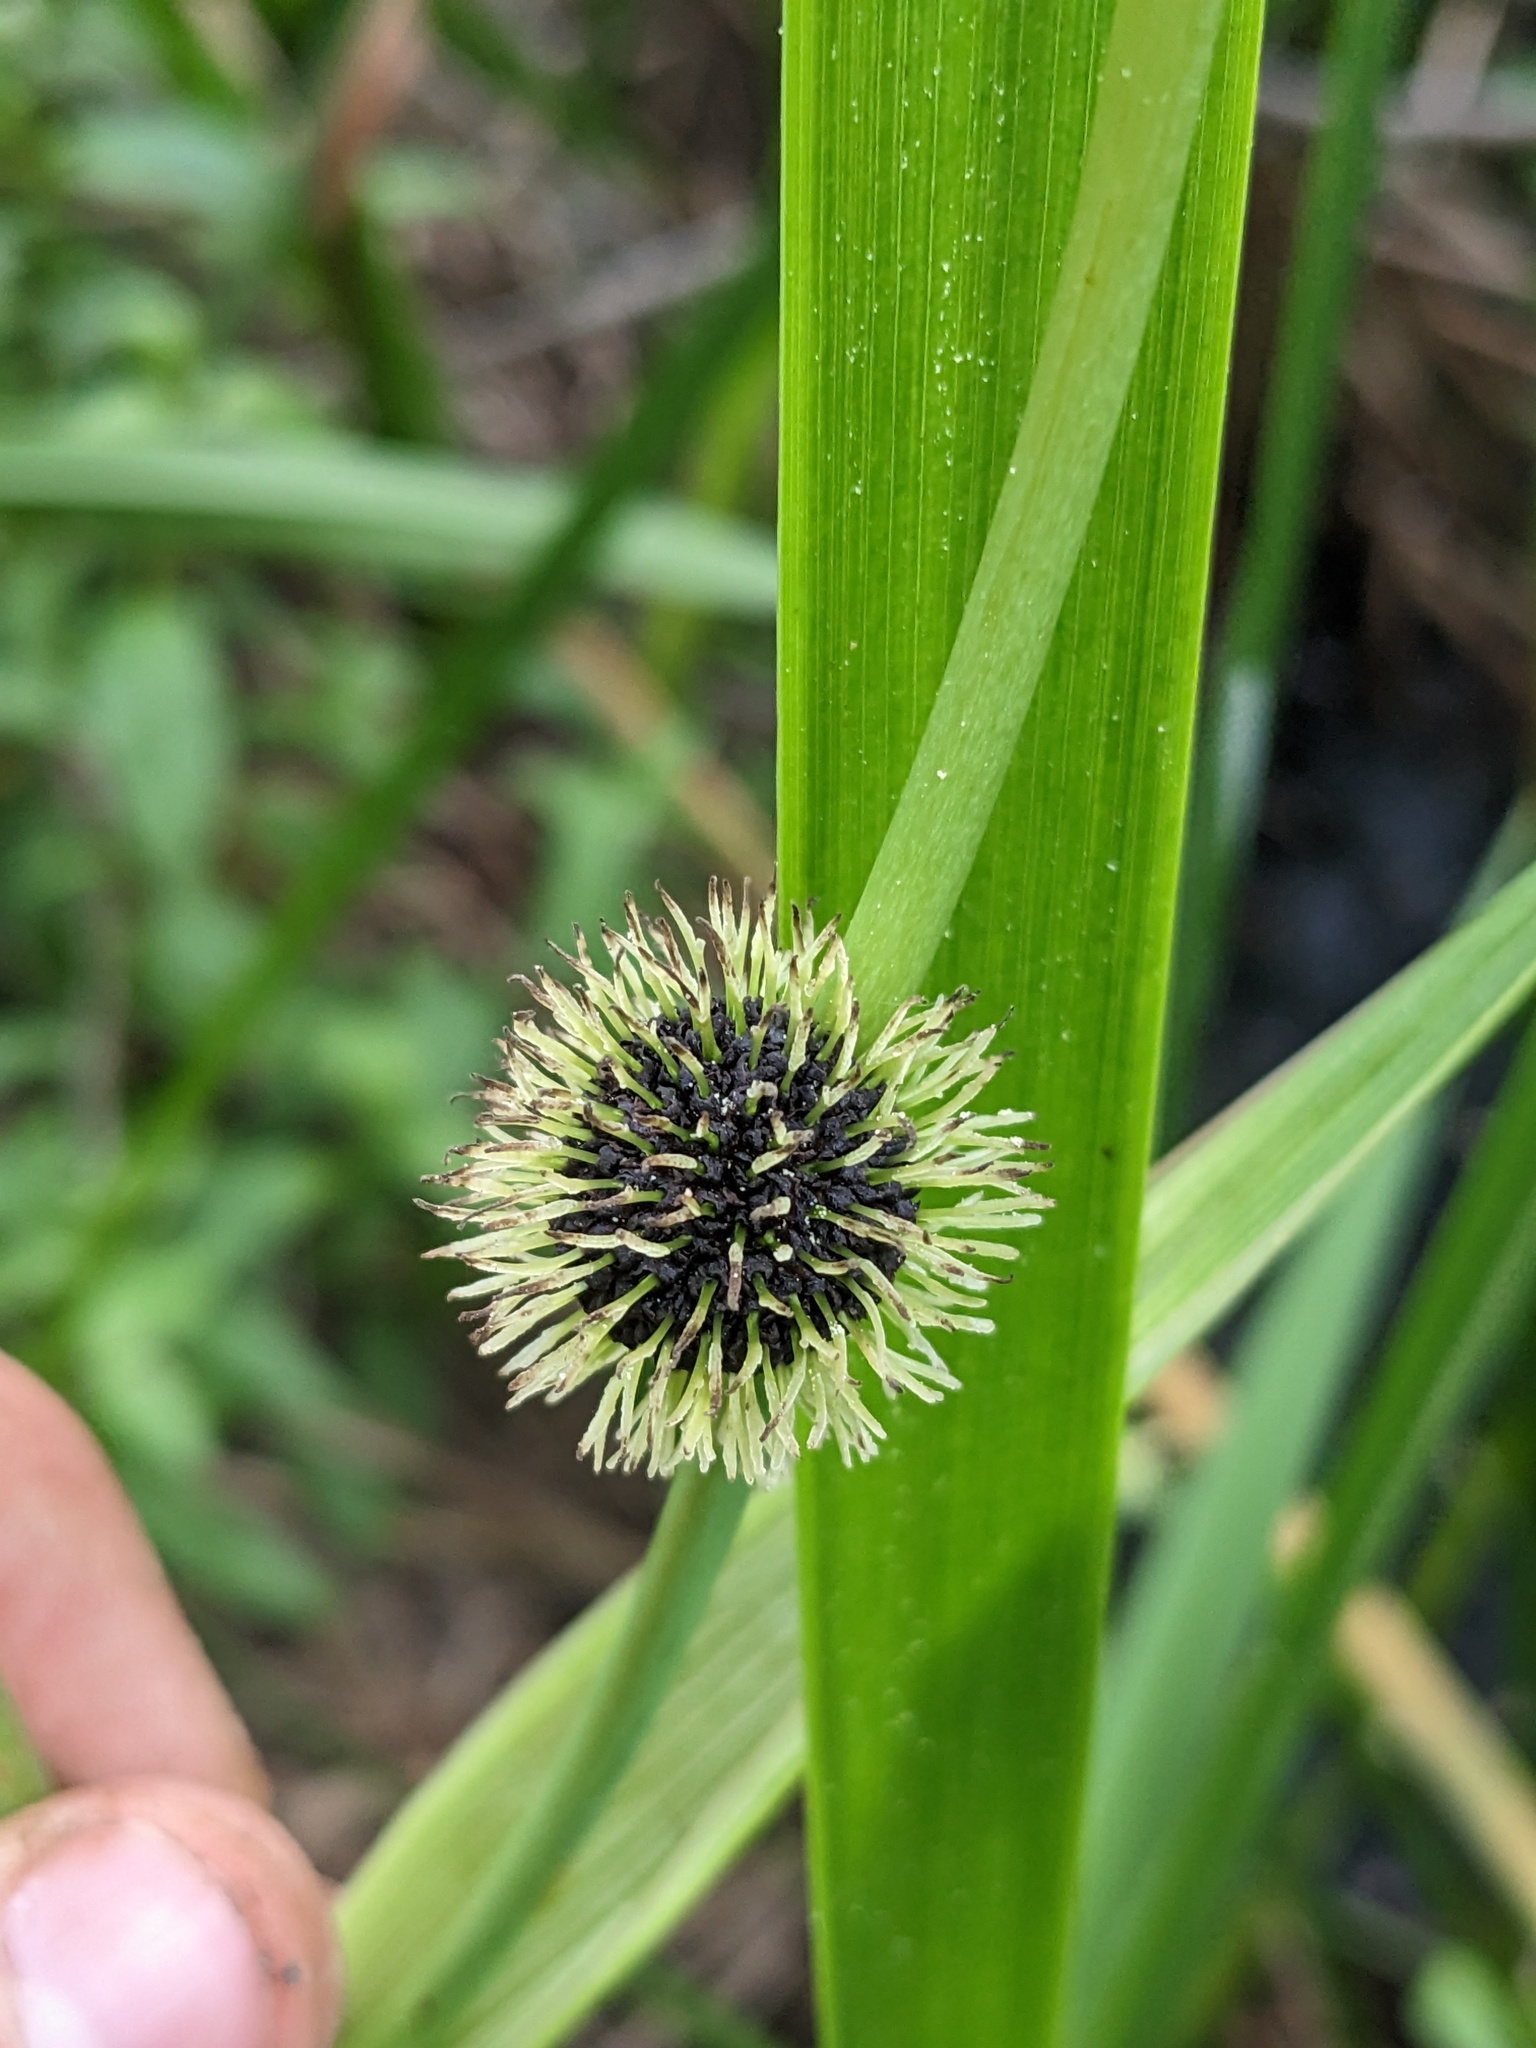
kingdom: Plantae
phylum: Tracheophyta
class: Liliopsida
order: Poales
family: Typhaceae
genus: Sparganium
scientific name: Sparganium eurycarpum
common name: Broad-fruited burreed
